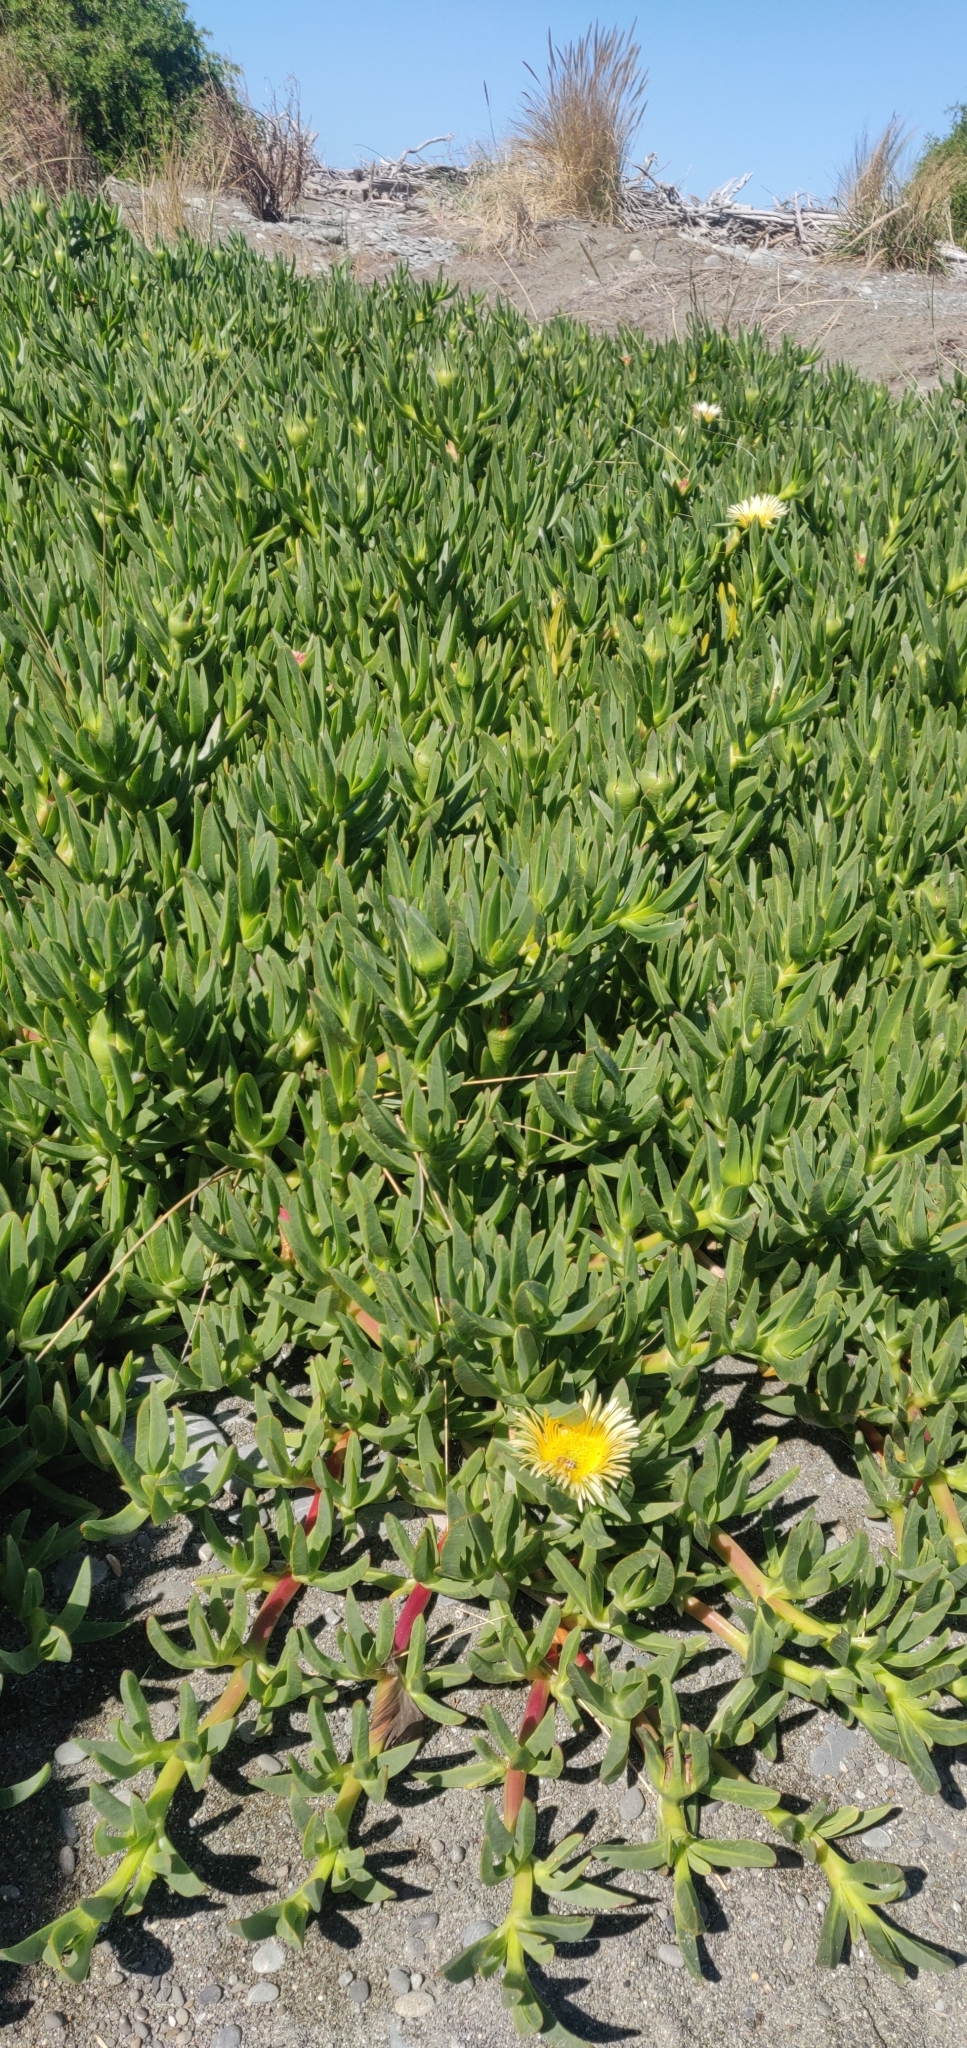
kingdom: Plantae
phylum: Tracheophyta
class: Magnoliopsida
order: Caryophyllales
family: Aizoaceae
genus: Carpobrotus
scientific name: Carpobrotus edulis
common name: Hottentot-fig
